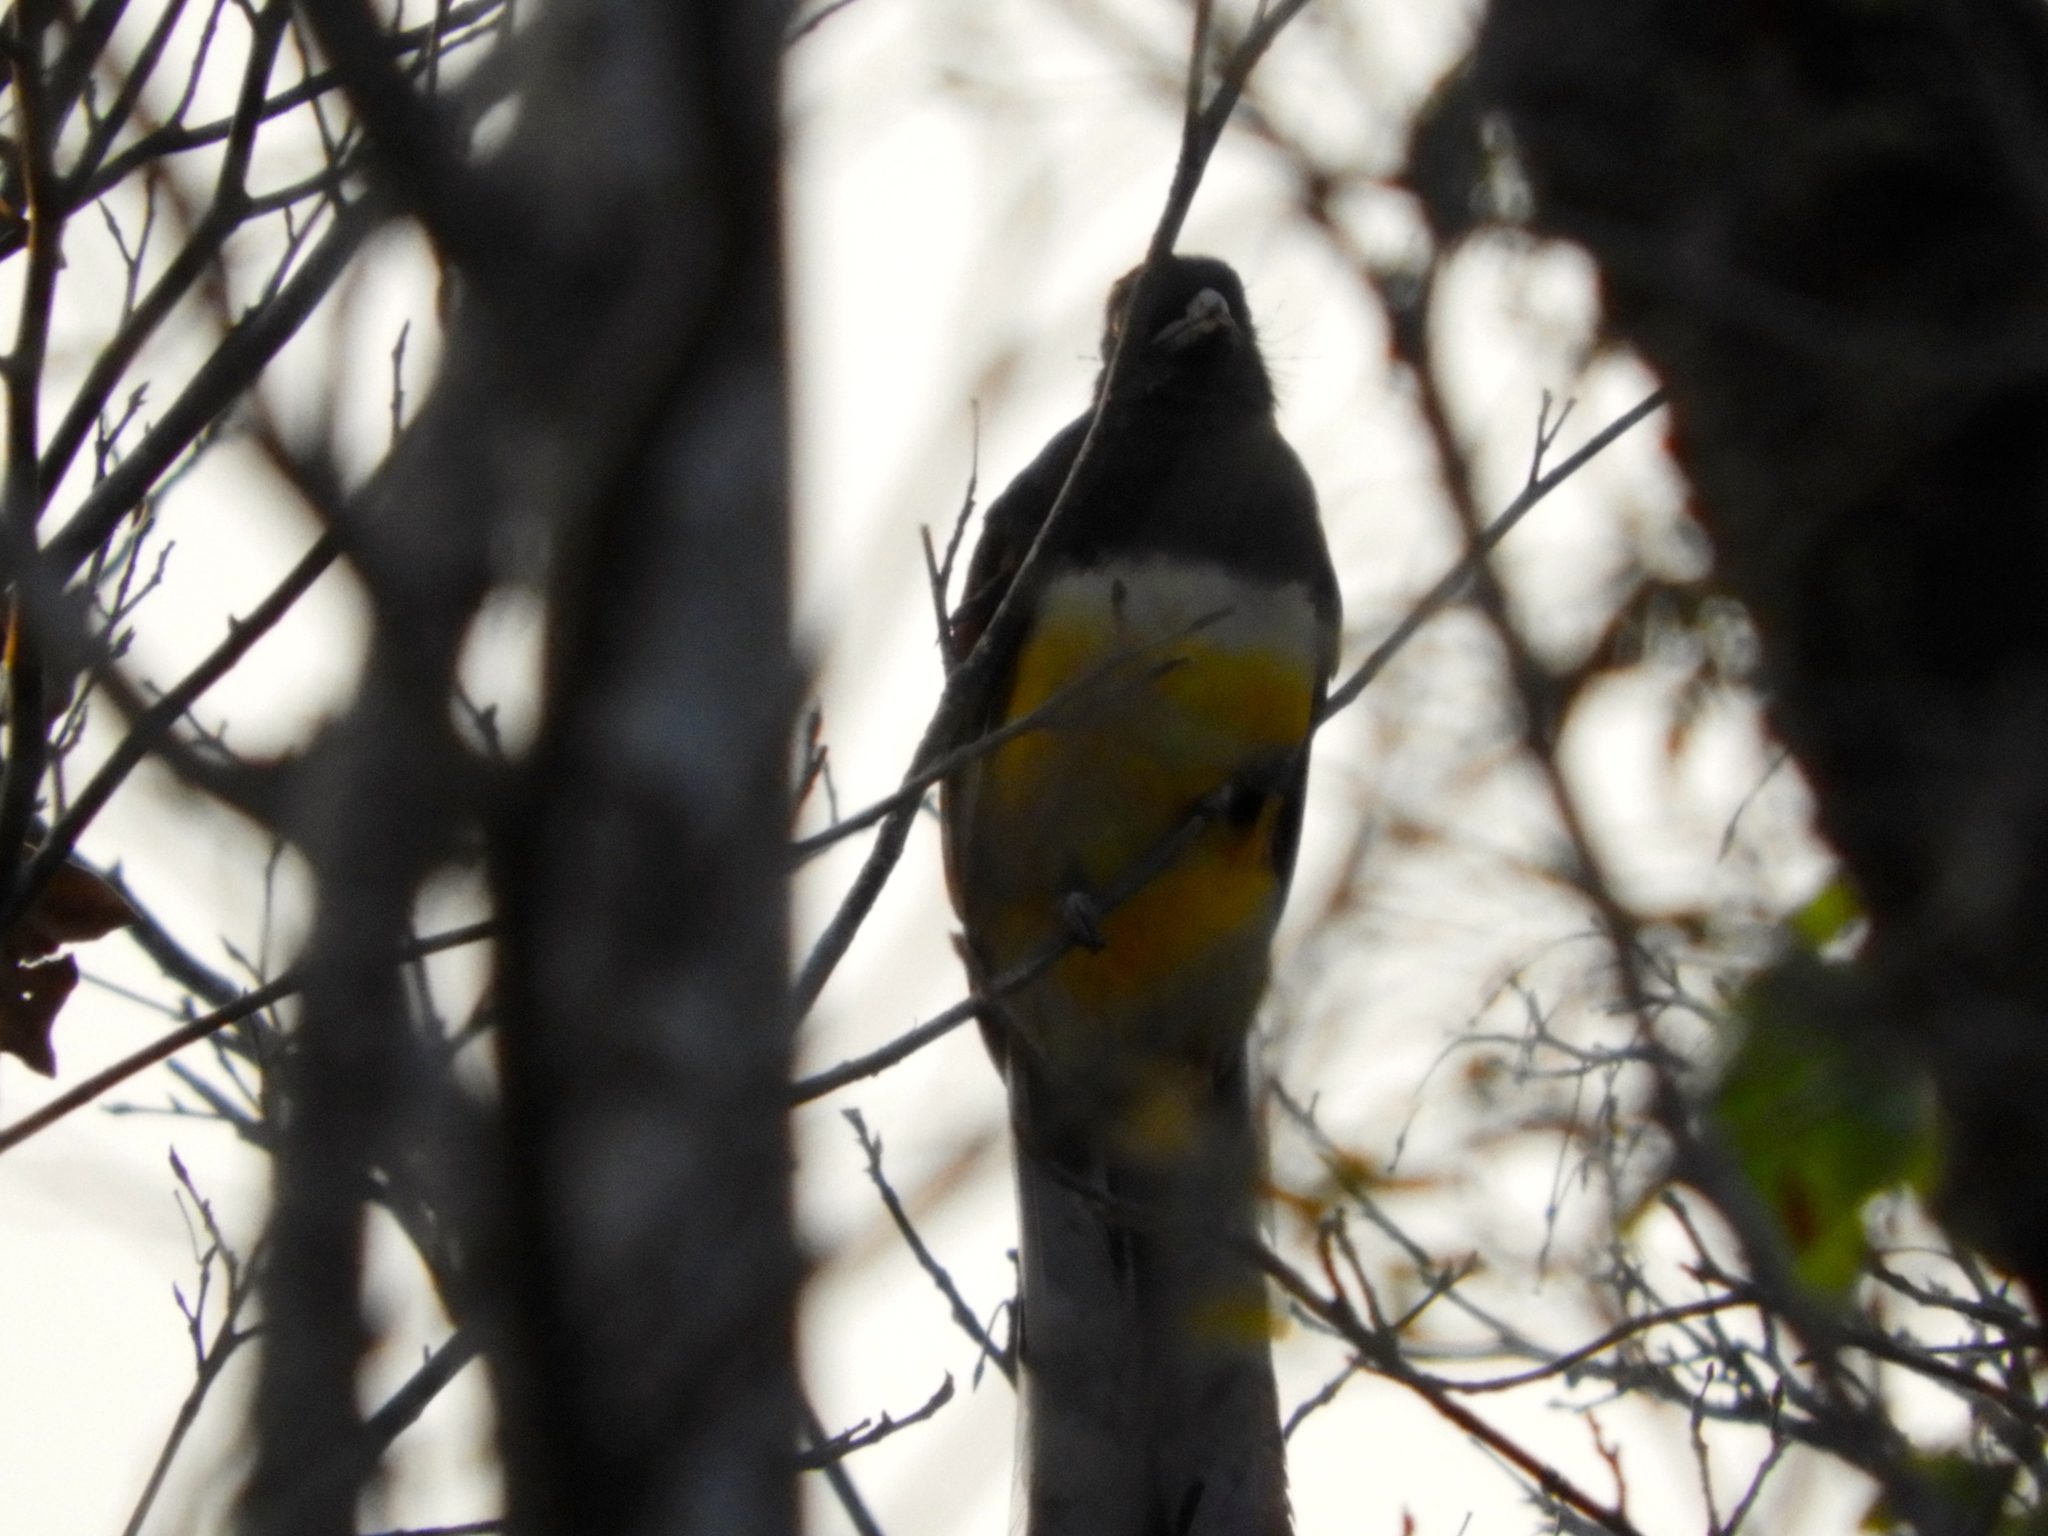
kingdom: Animalia
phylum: Chordata
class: Aves
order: Trogoniformes
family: Trogonidae
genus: Trogon
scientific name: Trogon citreolus
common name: Citreoline trogon
